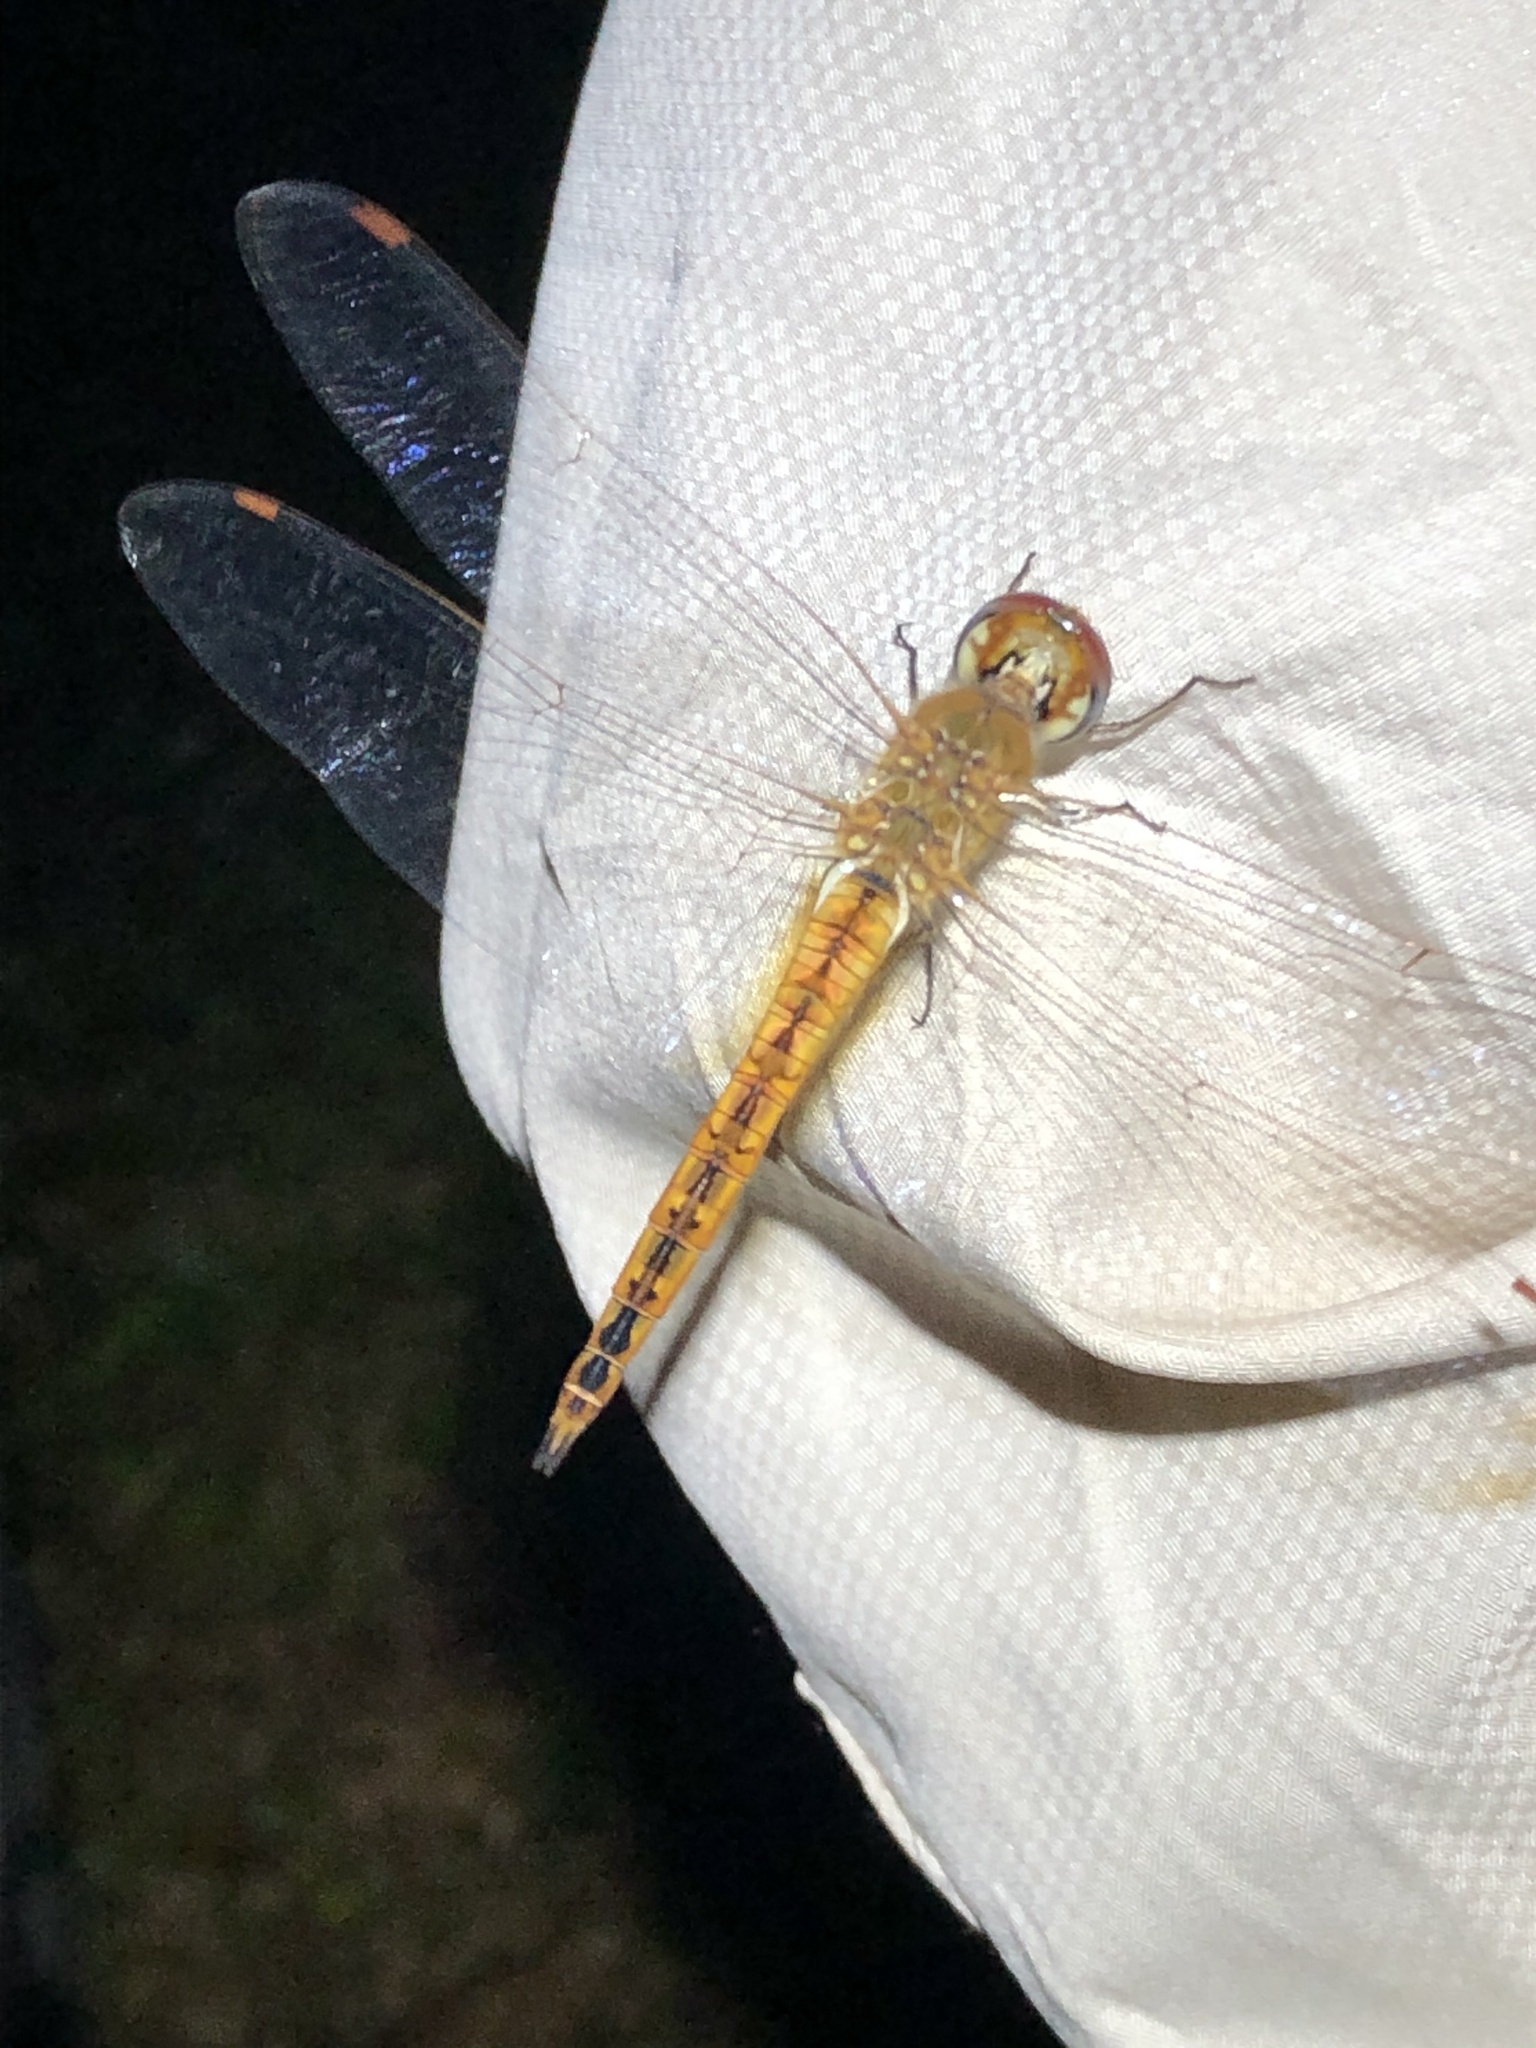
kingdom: Animalia
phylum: Arthropoda
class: Insecta
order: Odonata
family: Libellulidae
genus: Pantala
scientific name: Pantala flavescens
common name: Wandering glider
